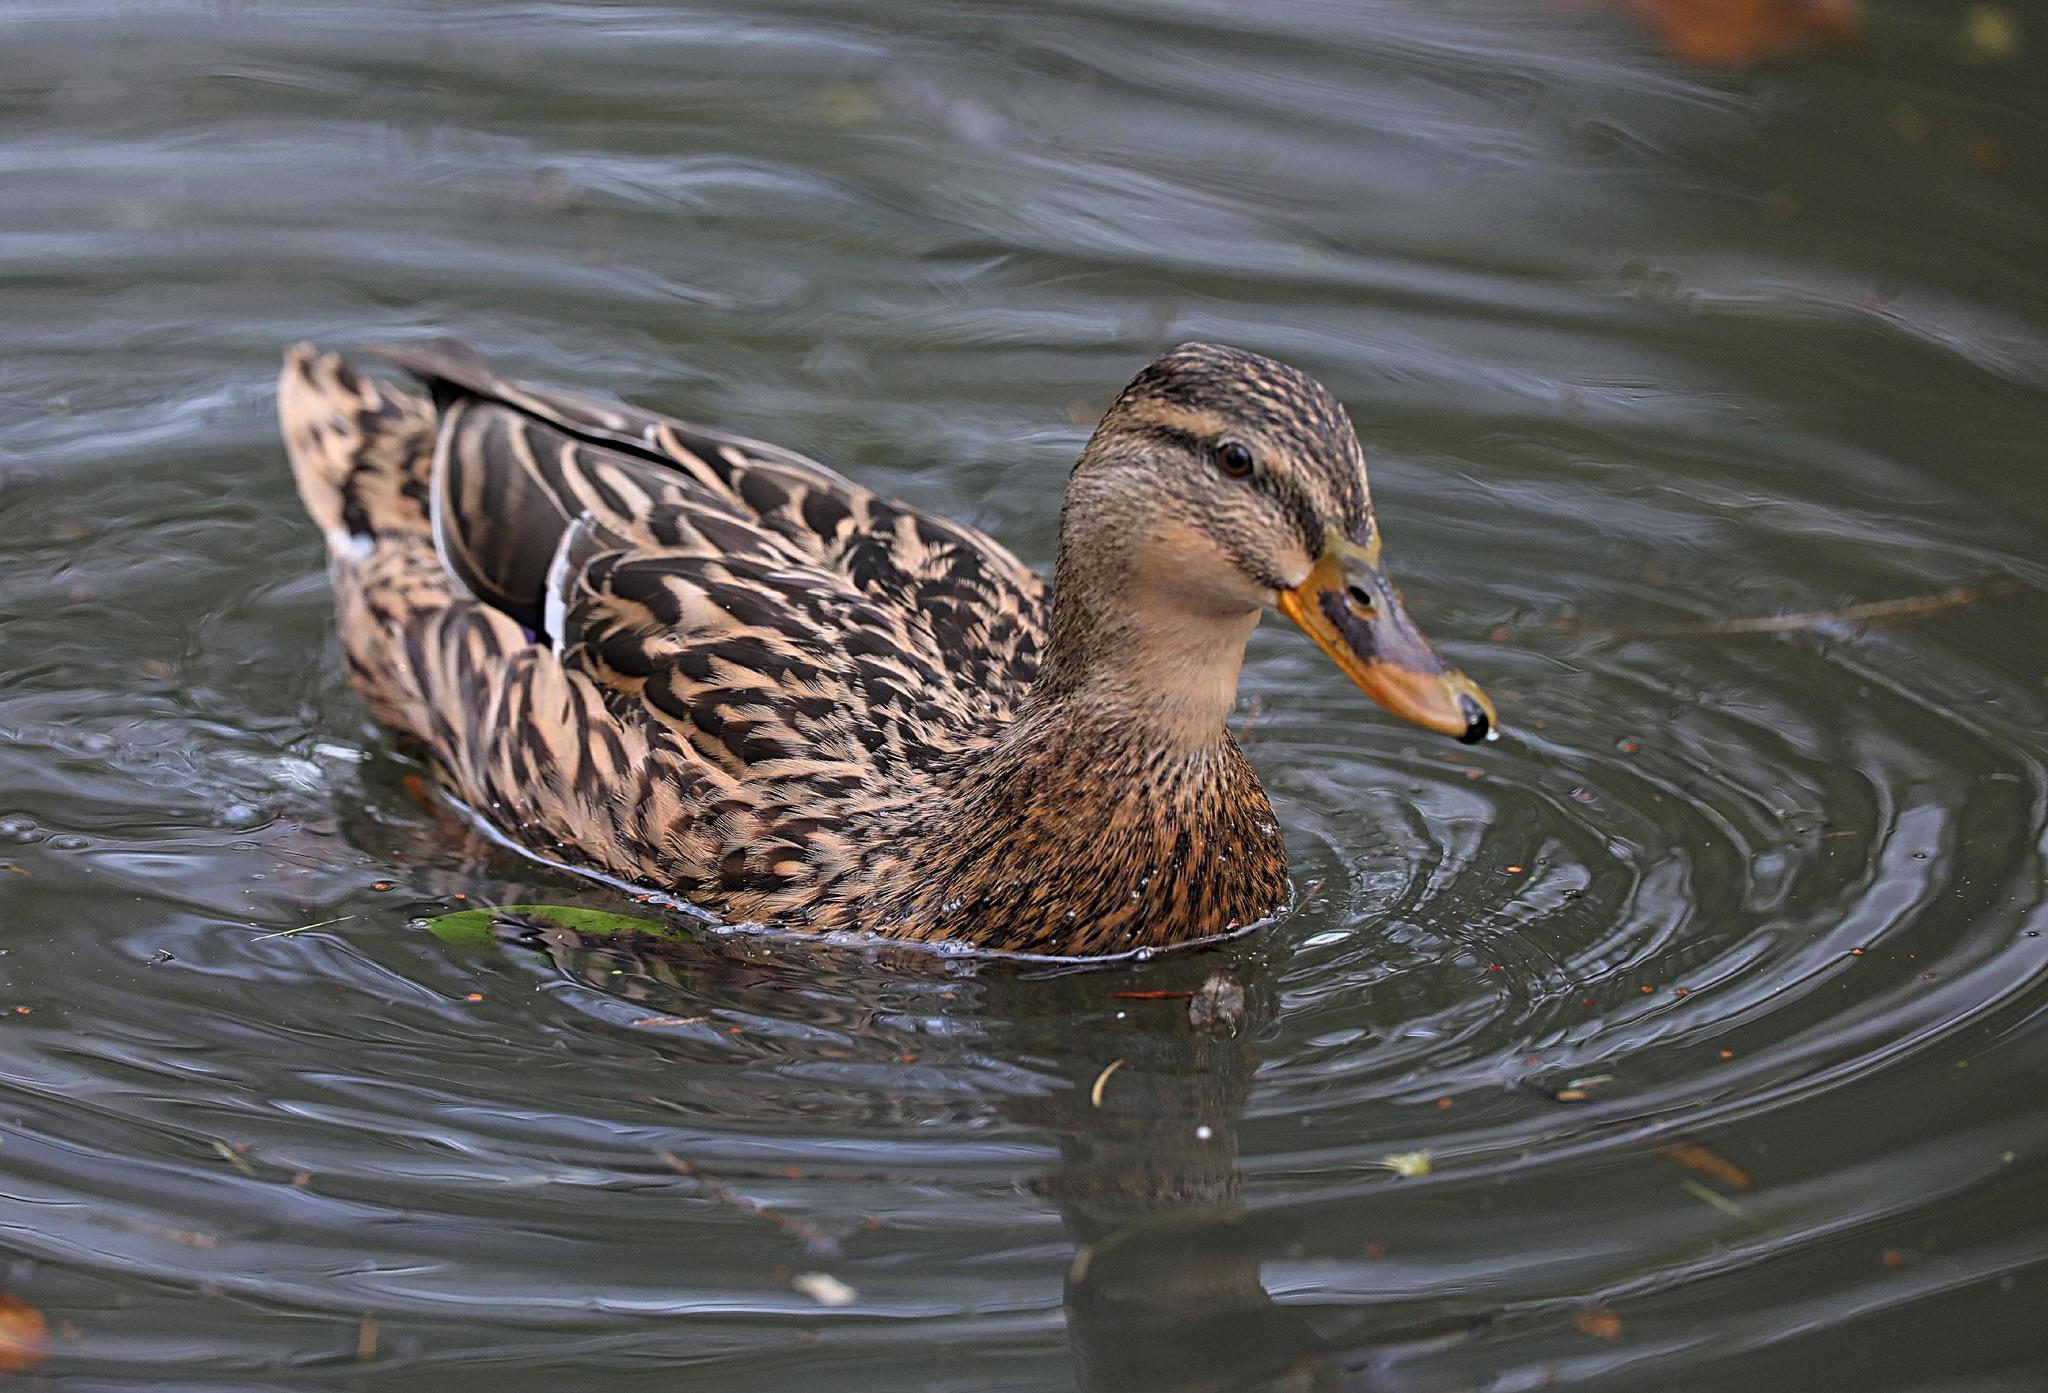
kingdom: Animalia
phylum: Chordata
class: Aves
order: Anseriformes
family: Anatidae
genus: Anas
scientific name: Anas platyrhynchos
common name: Mallard
